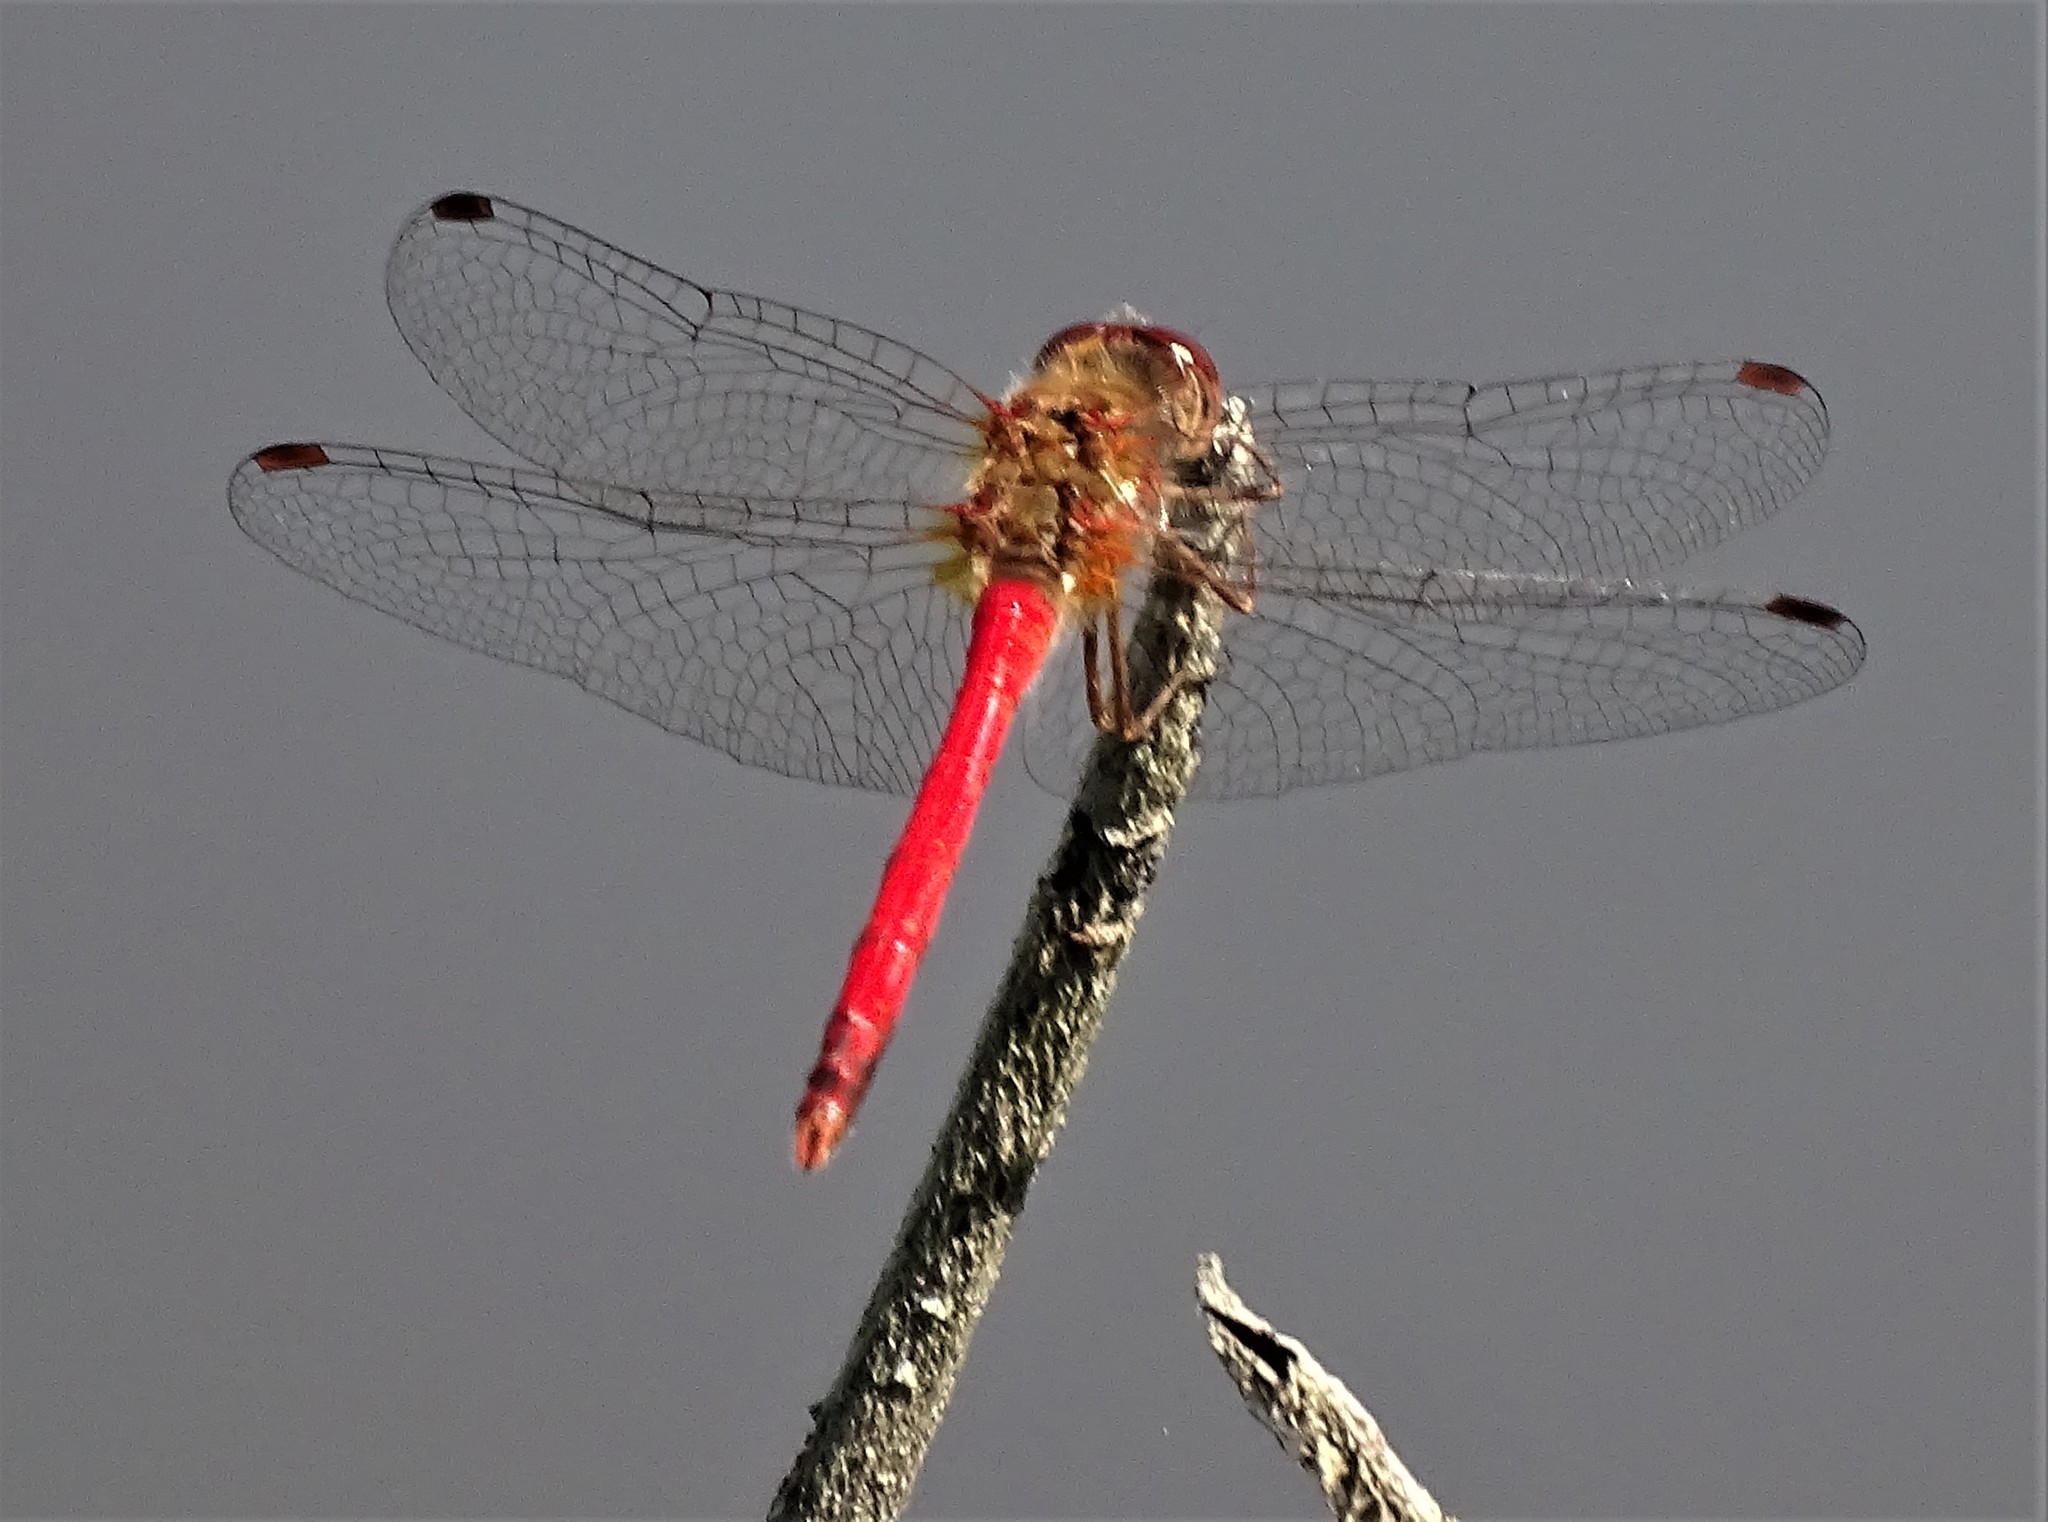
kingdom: Animalia
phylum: Arthropoda
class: Insecta
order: Odonata
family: Libellulidae
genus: Sympetrum
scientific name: Sympetrum vicinum
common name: Autumn meadowhawk
